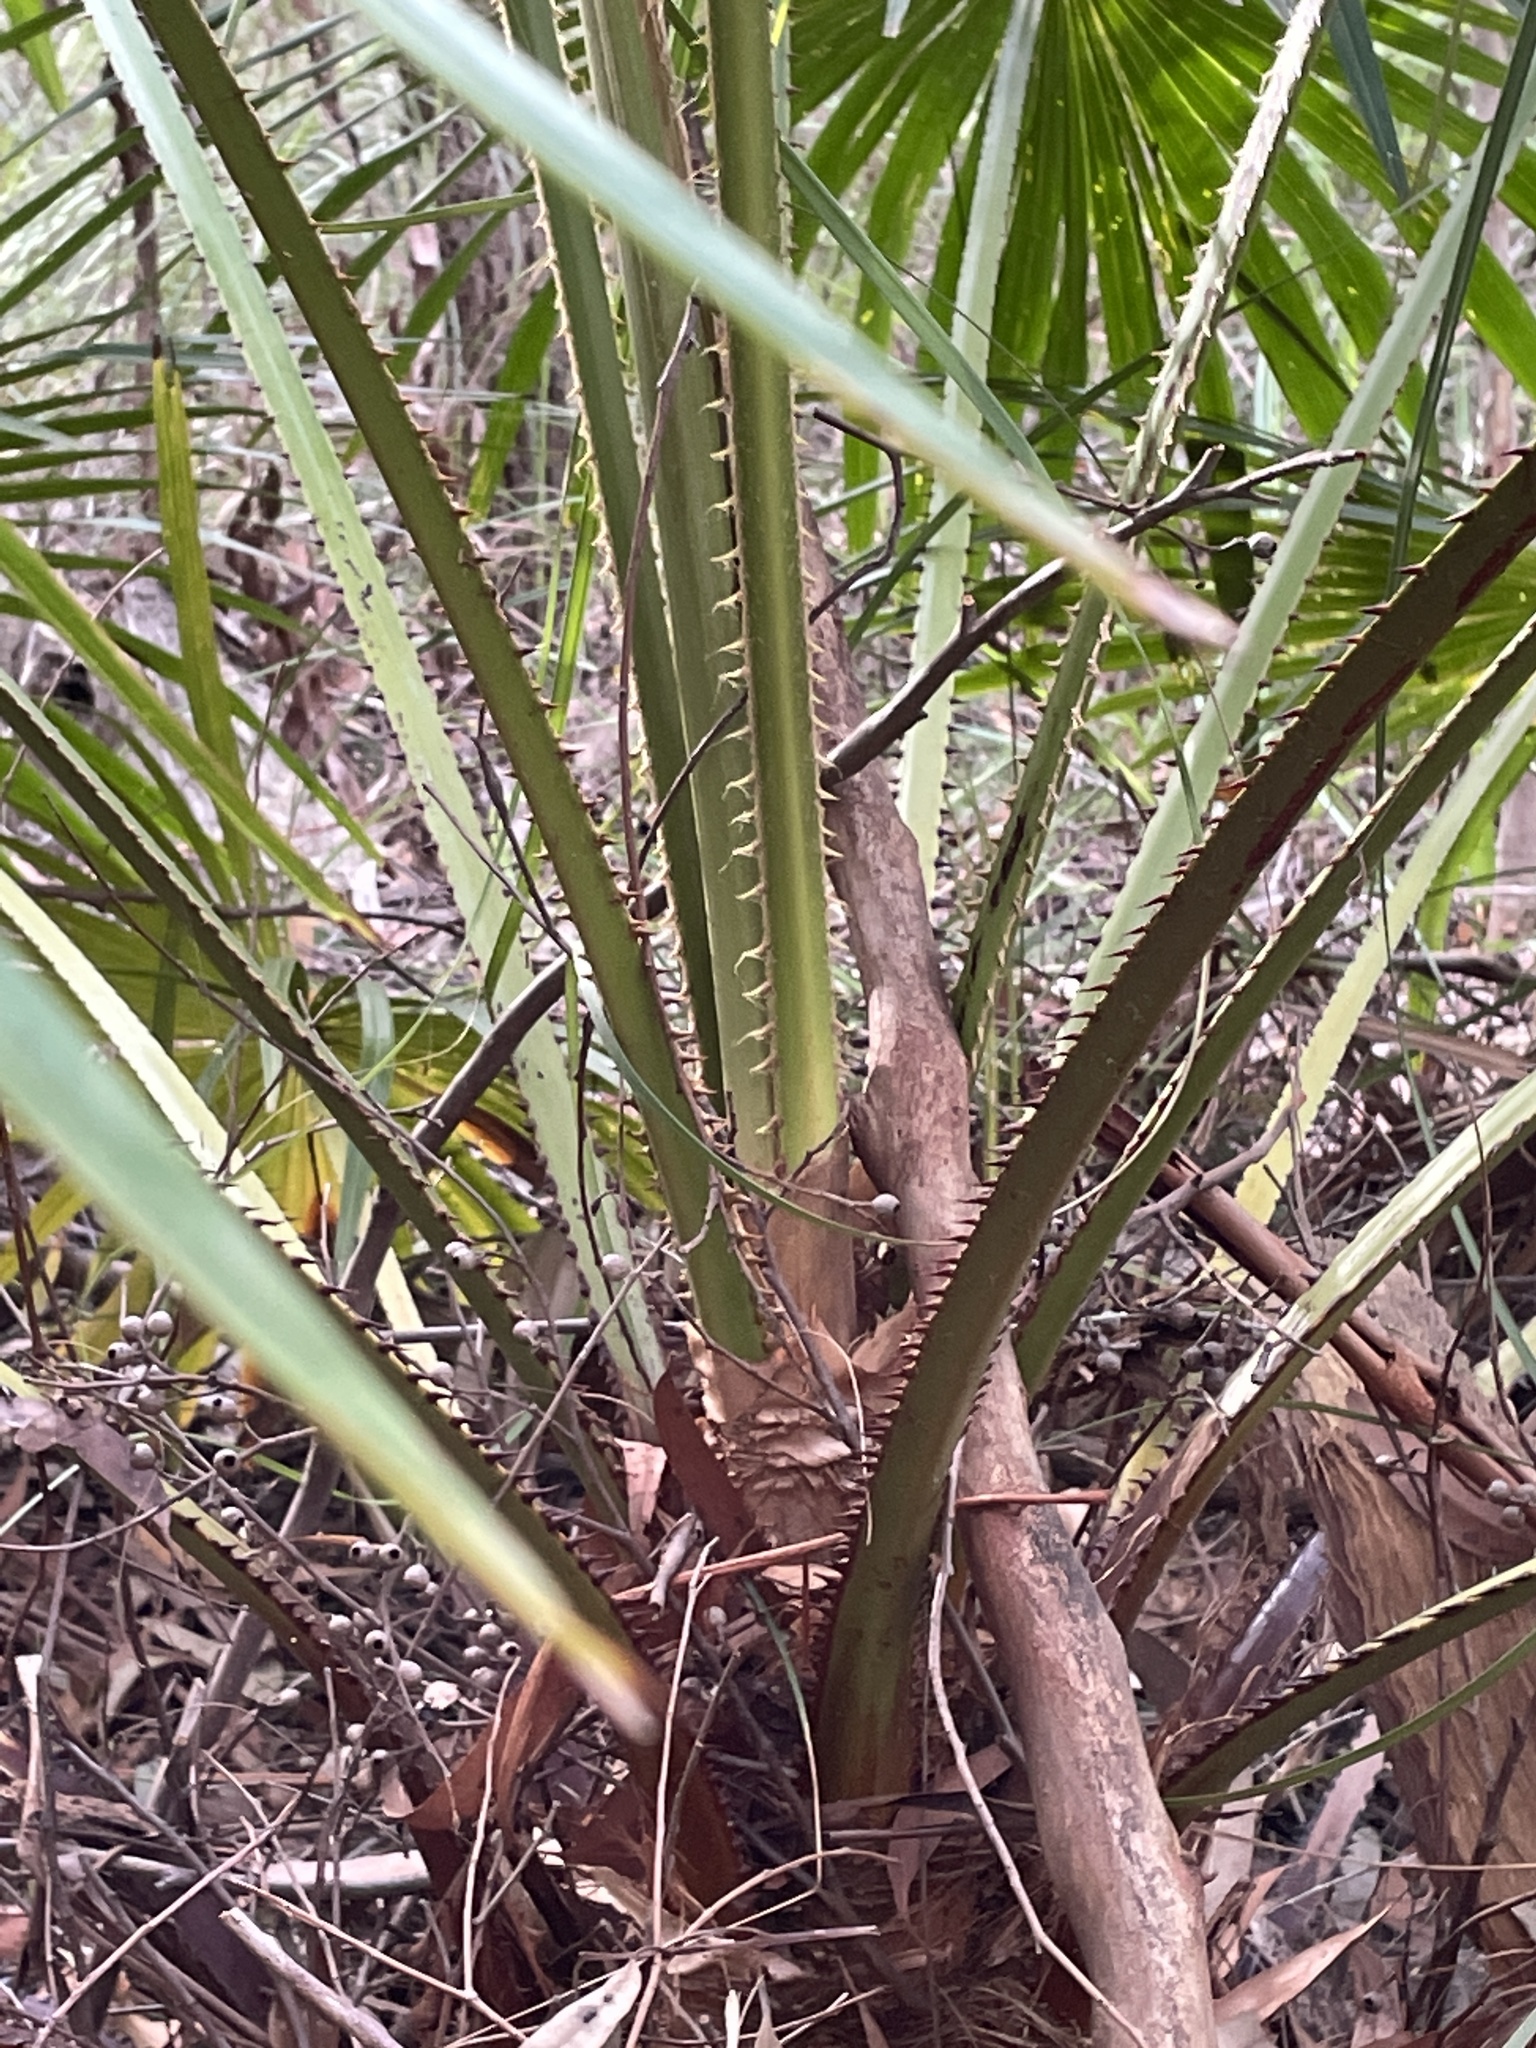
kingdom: Plantae
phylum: Tracheophyta
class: Liliopsida
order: Arecales
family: Arecaceae
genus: Livistona
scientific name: Livistona australis
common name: Cabbage fan palm
